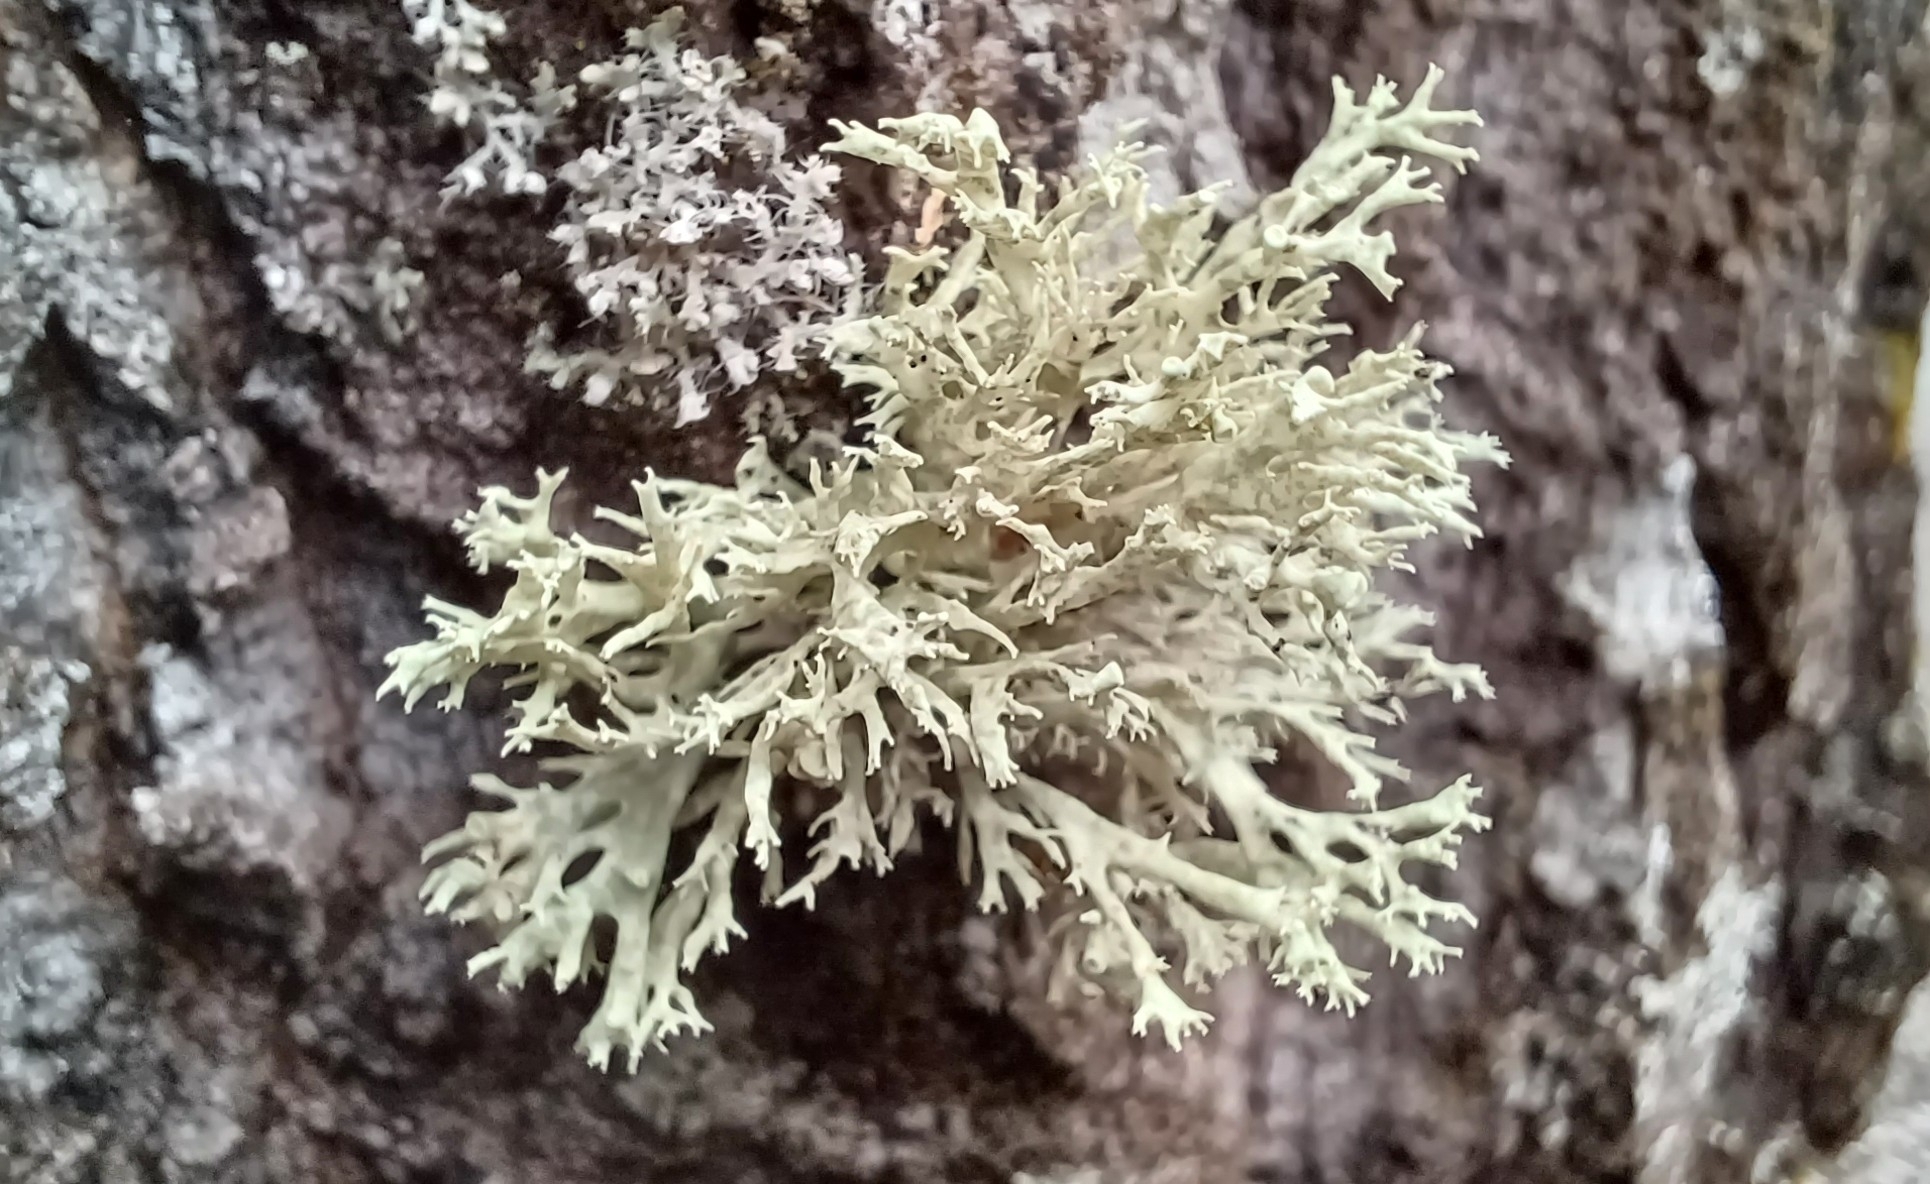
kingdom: Fungi
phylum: Ascomycota
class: Lecanoromycetes
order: Lecanorales
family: Parmeliaceae
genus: Evernia
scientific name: Evernia prunastri
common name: Oak moss
